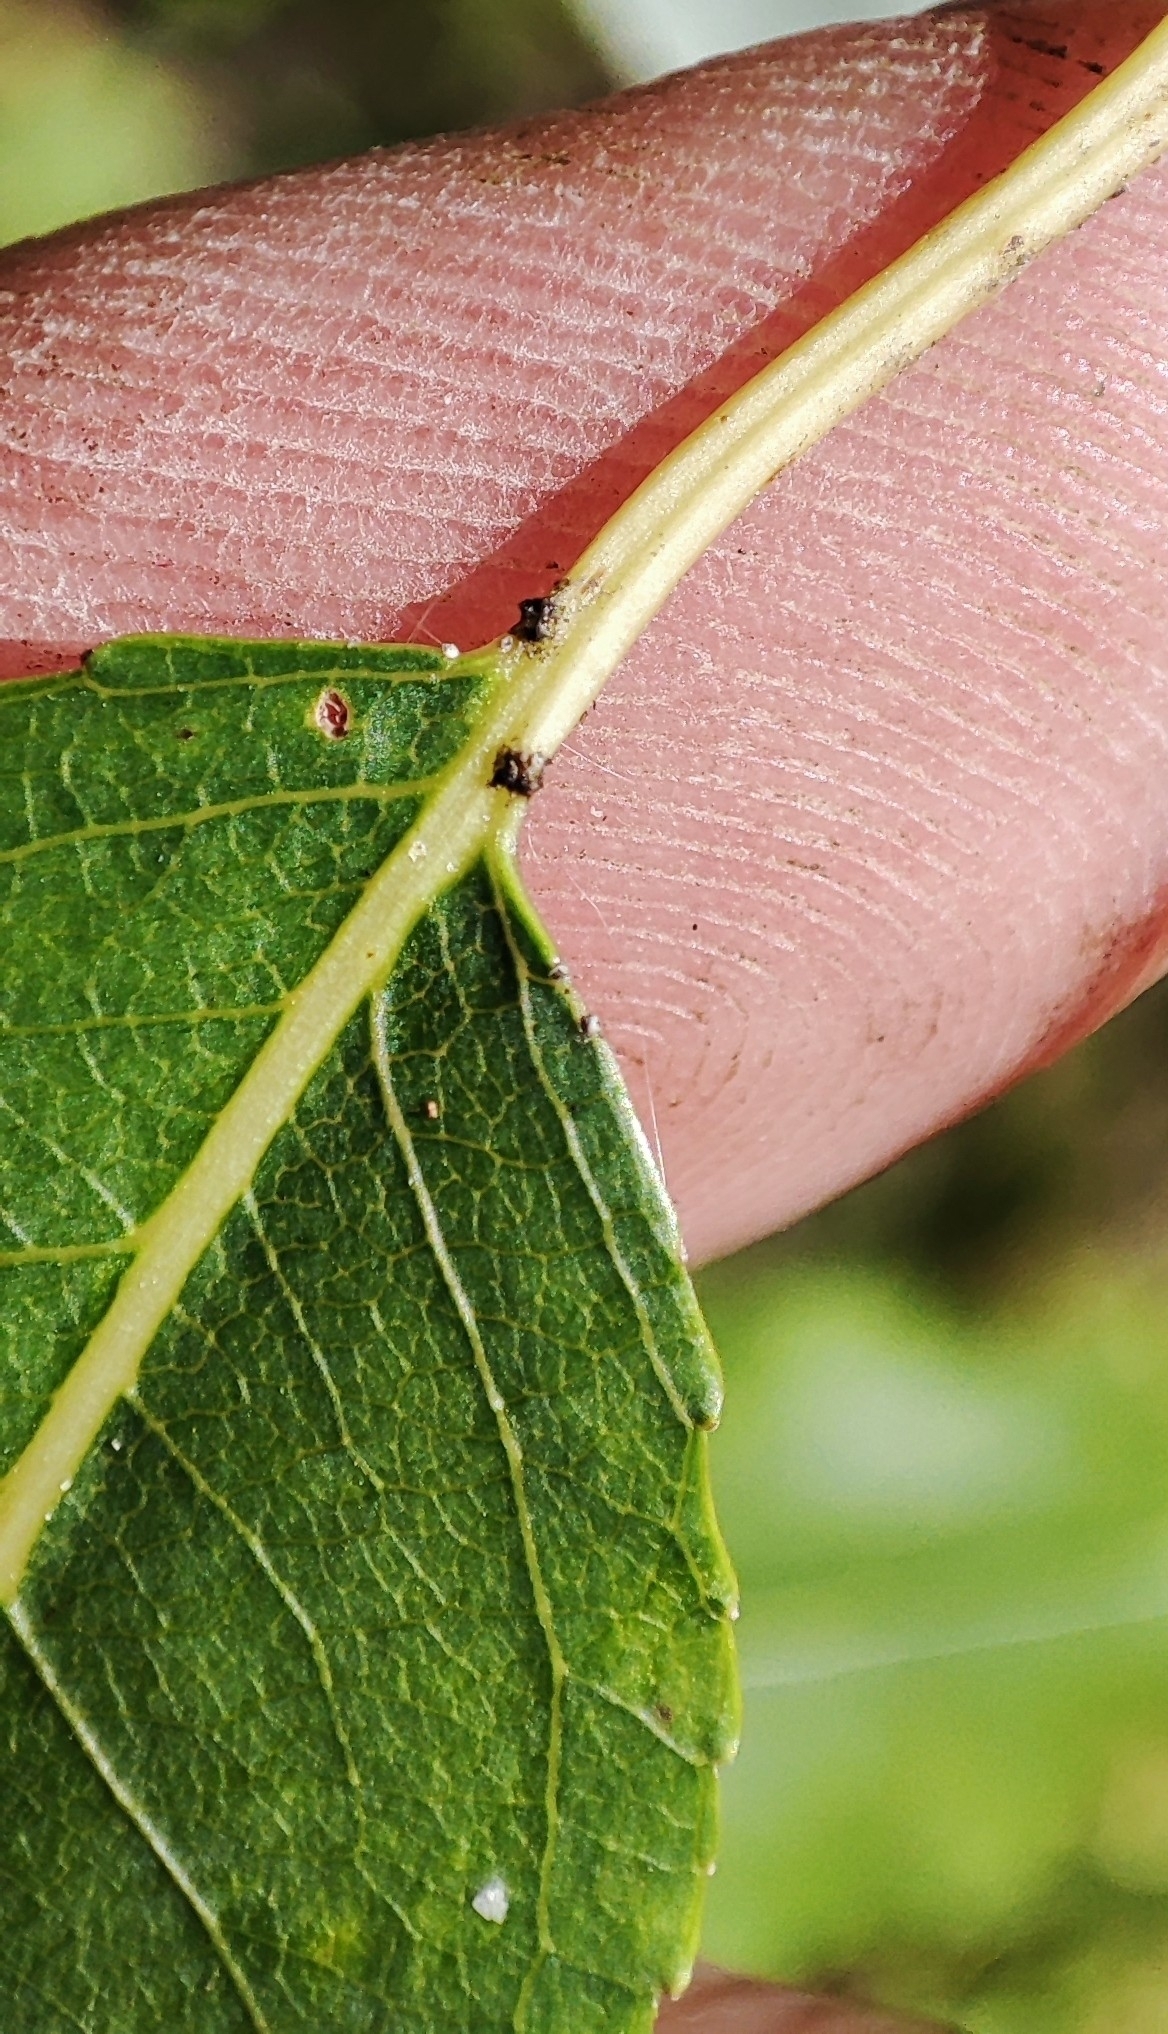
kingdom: Plantae
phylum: Tracheophyta
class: Magnoliopsida
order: Malpighiales
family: Salicaceae
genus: Salix
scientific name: Salix triandra
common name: Almond willow
